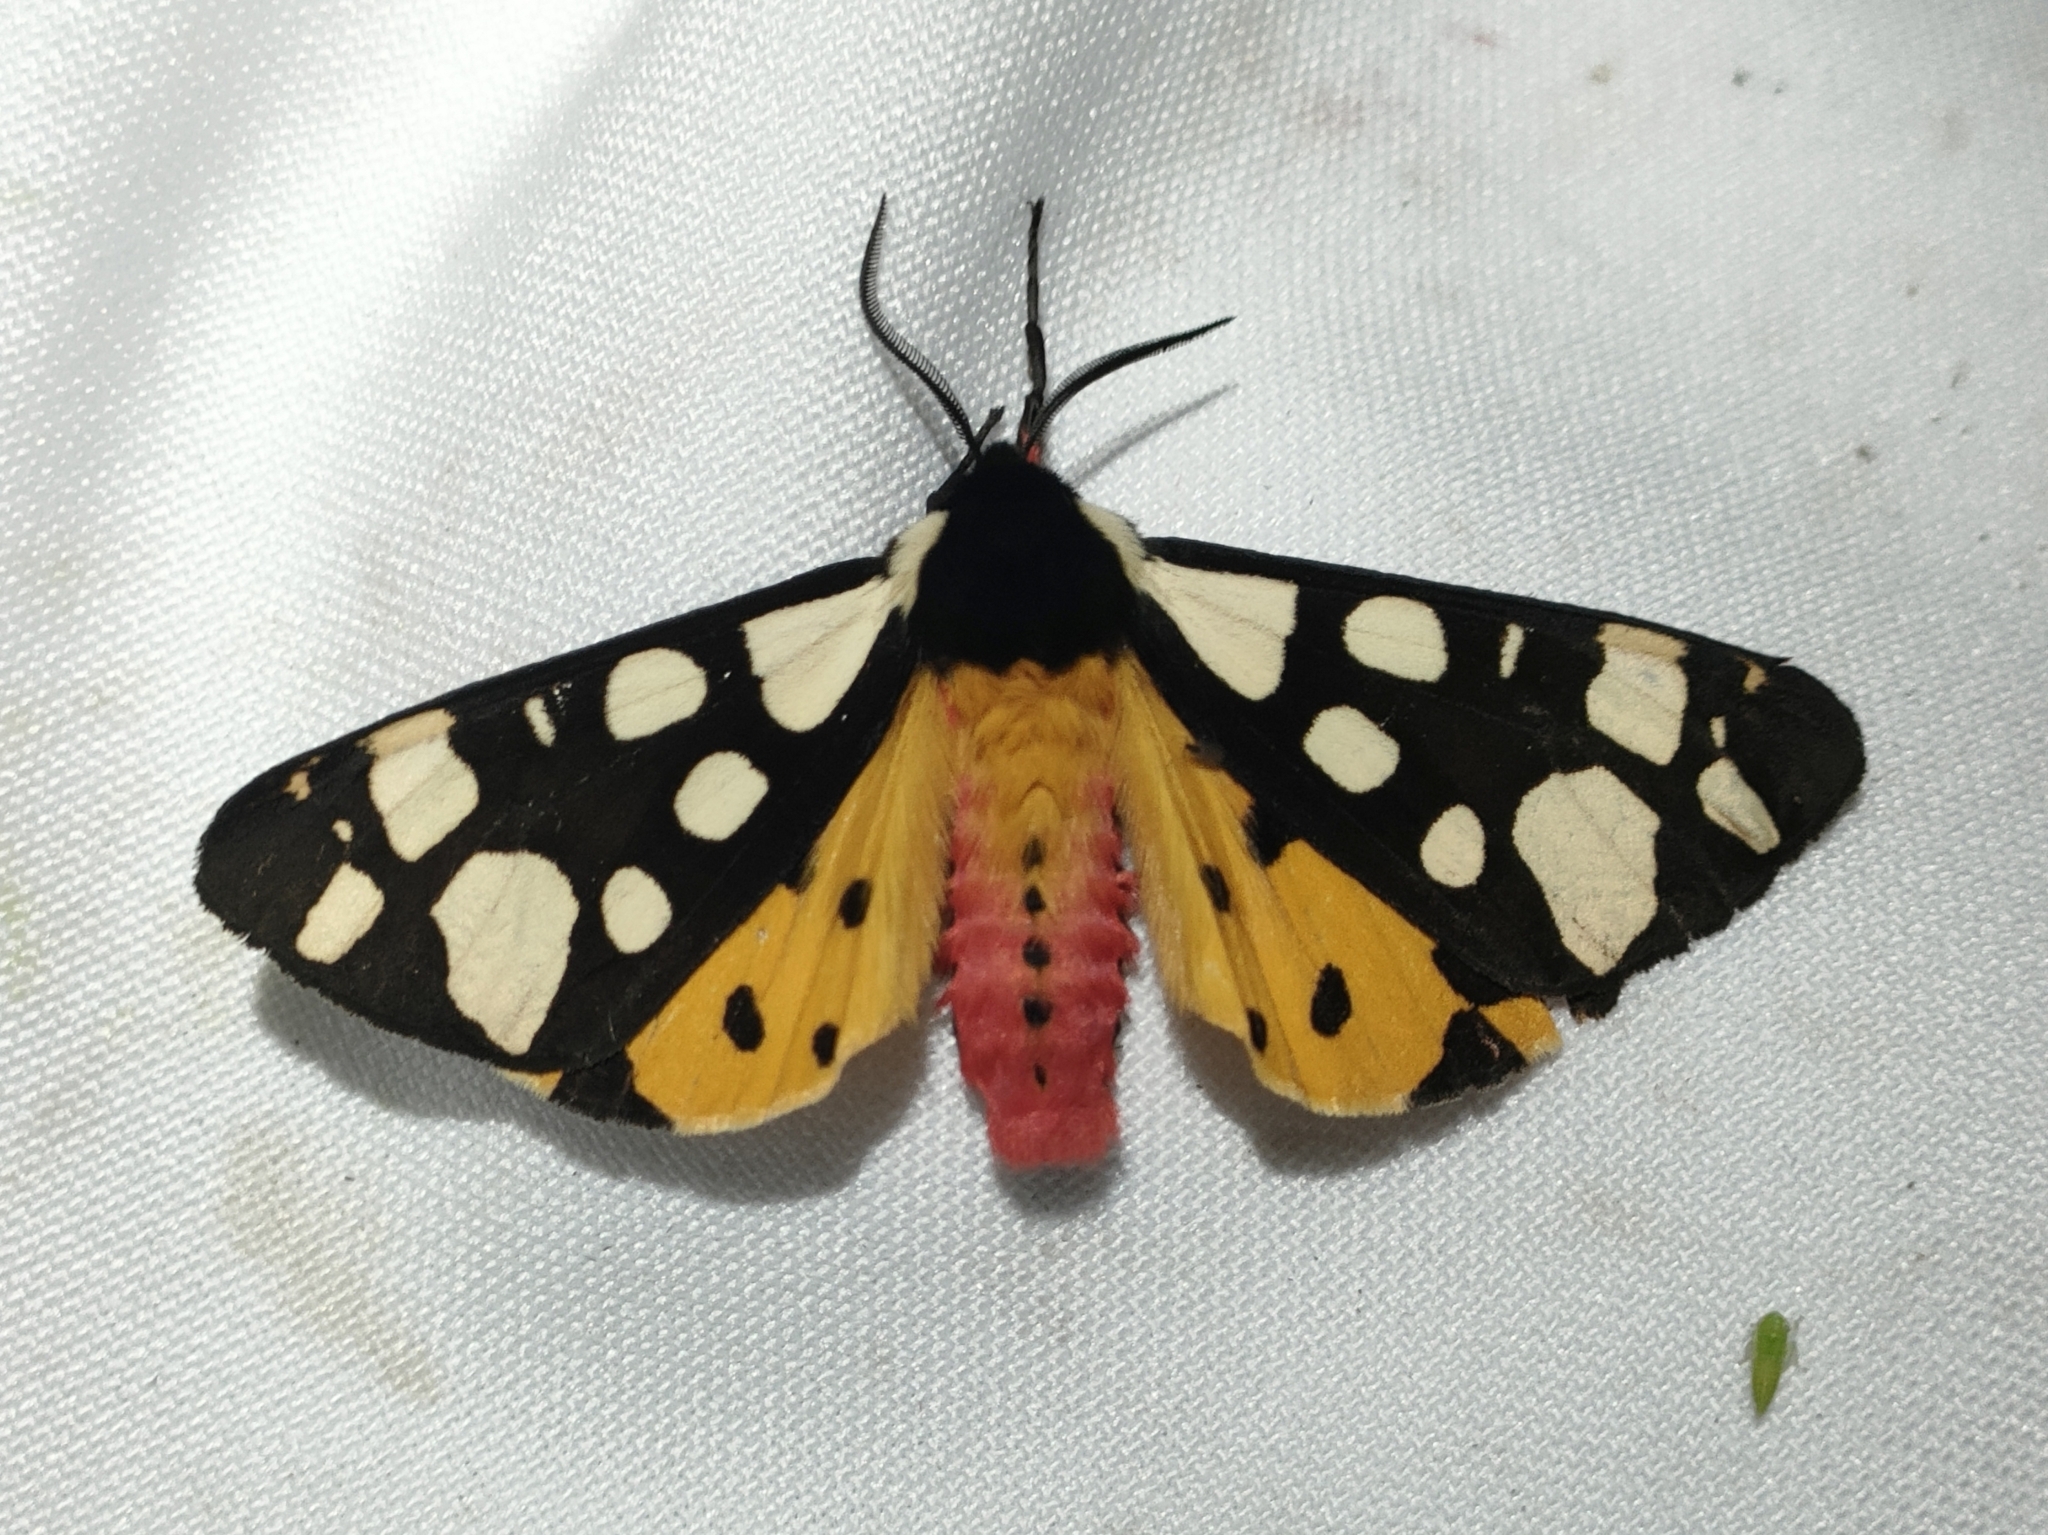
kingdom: Animalia
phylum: Arthropoda
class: Insecta
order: Lepidoptera
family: Erebidae
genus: Epicallia
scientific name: Epicallia villica
